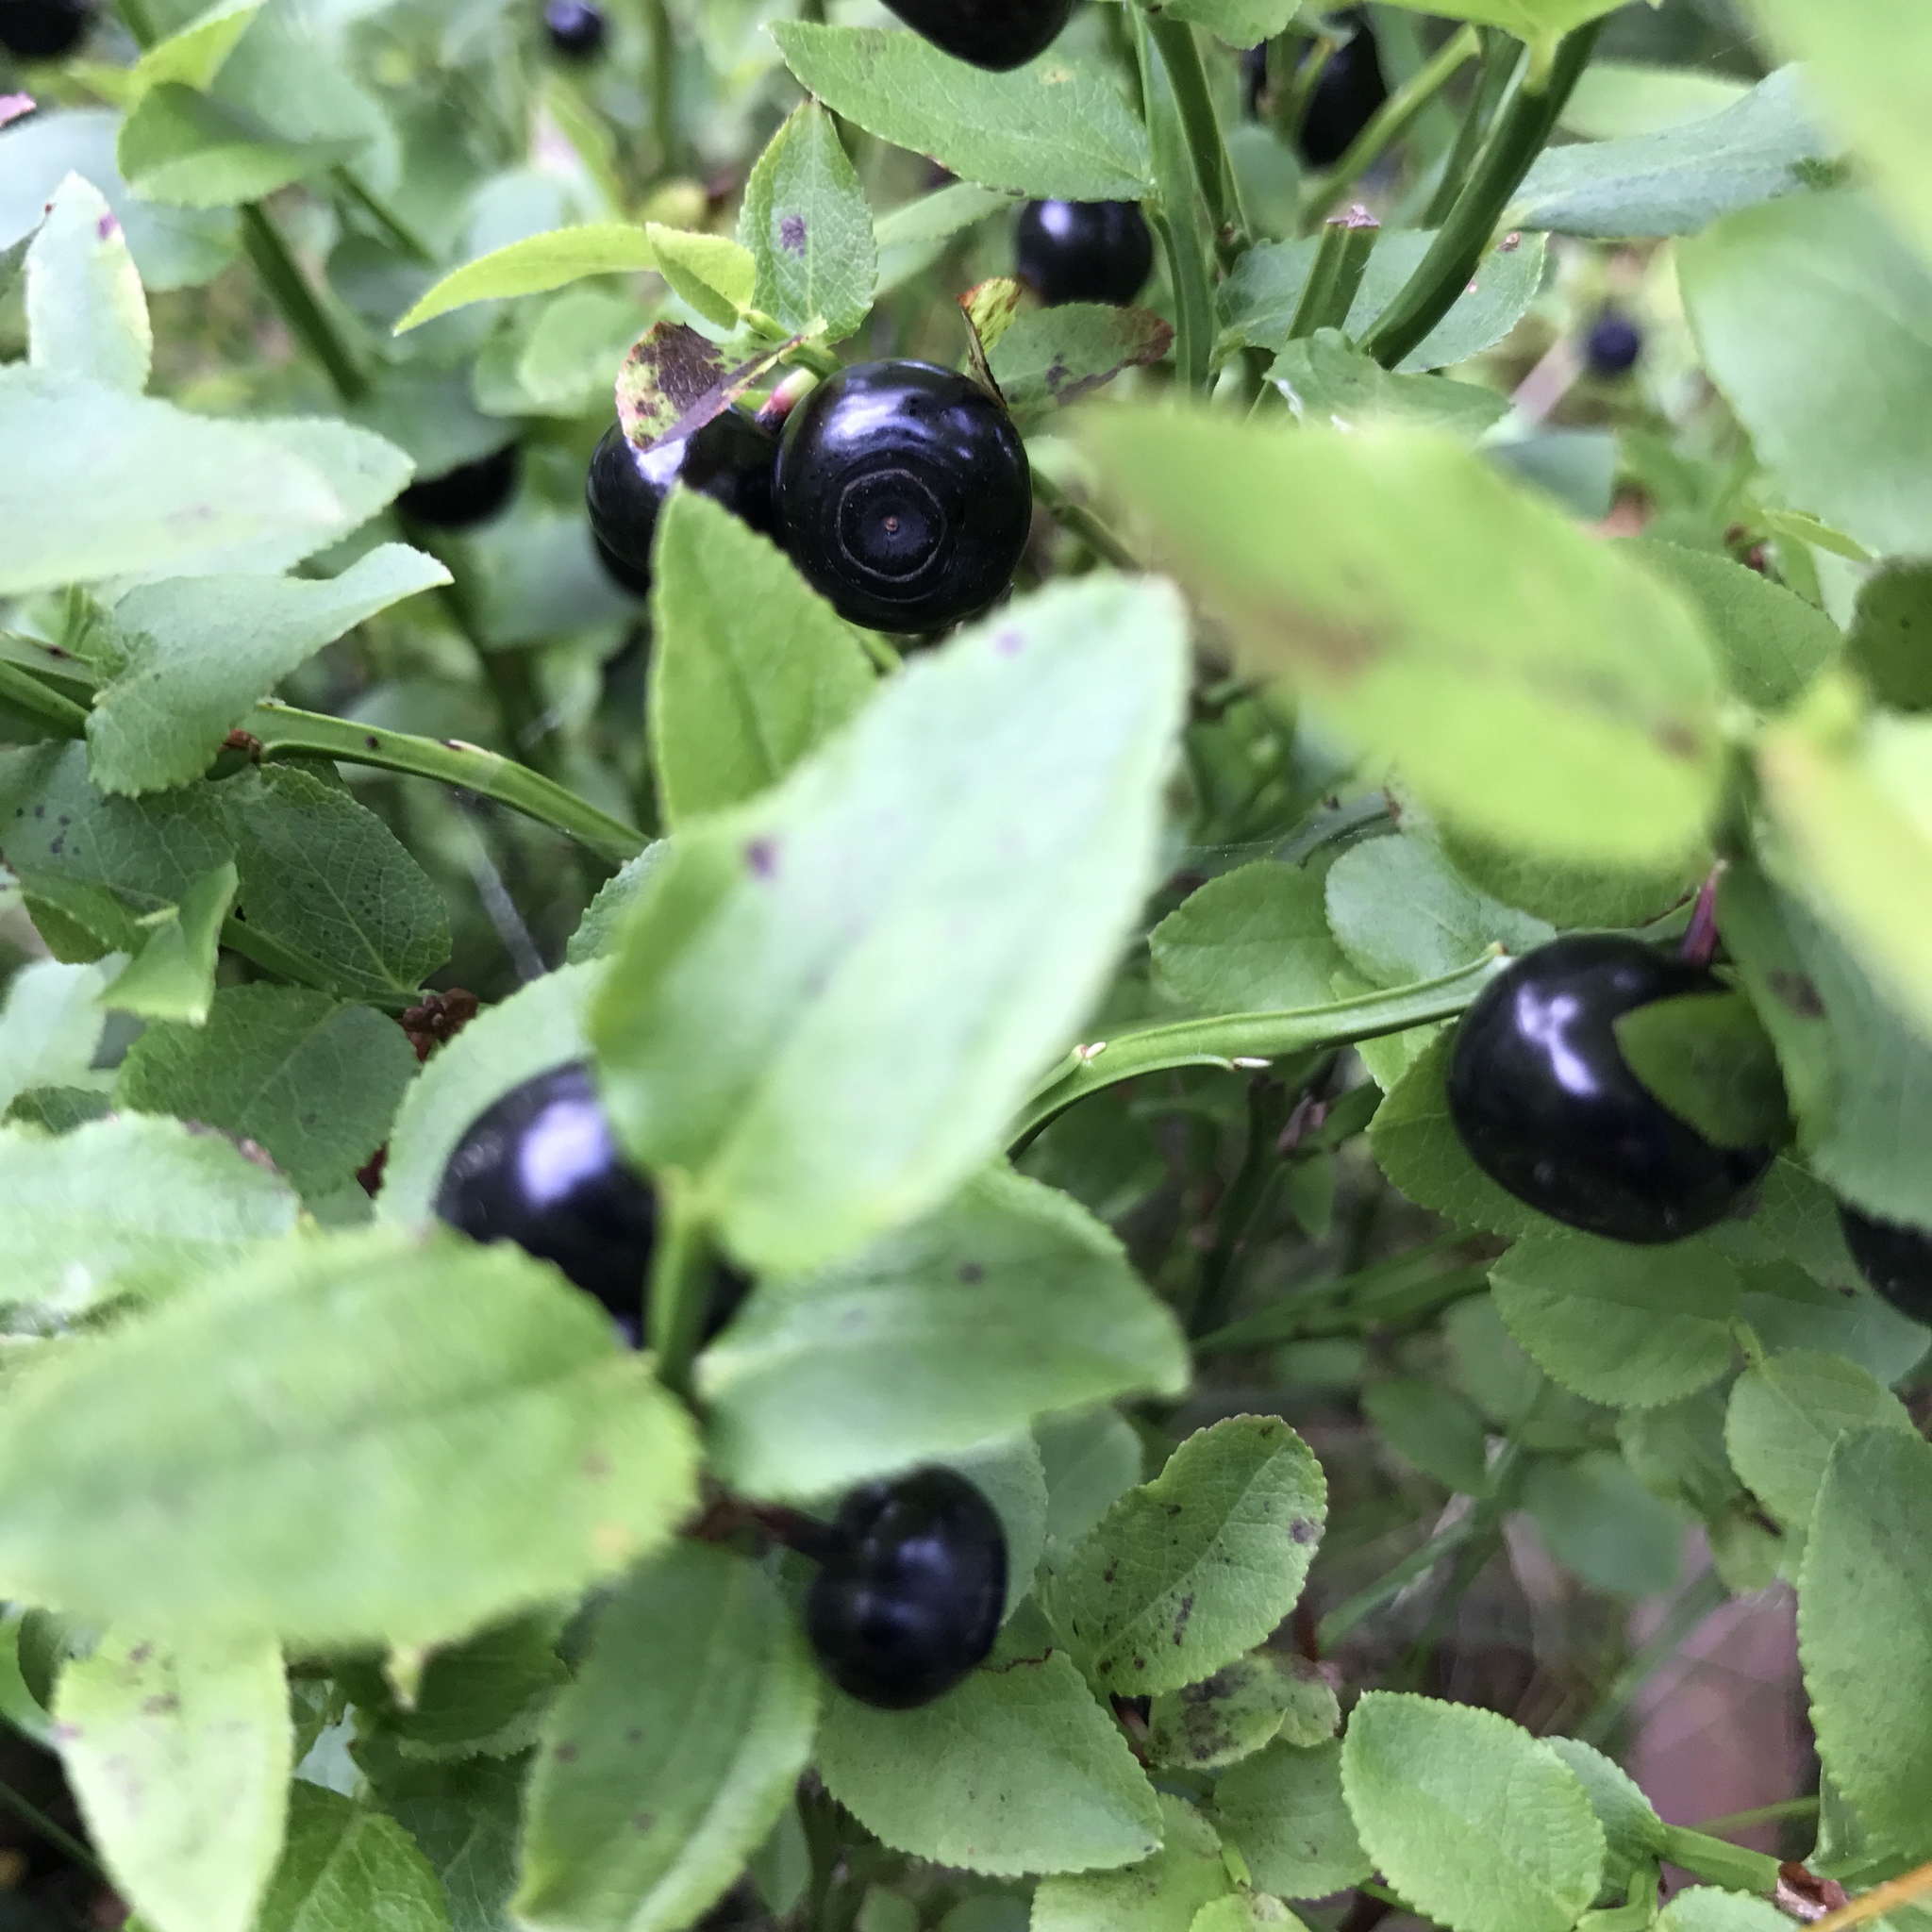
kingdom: Plantae
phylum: Tracheophyta
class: Magnoliopsida
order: Ericales
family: Ericaceae
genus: Vaccinium
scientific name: Vaccinium myrtillus
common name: Bilberry
